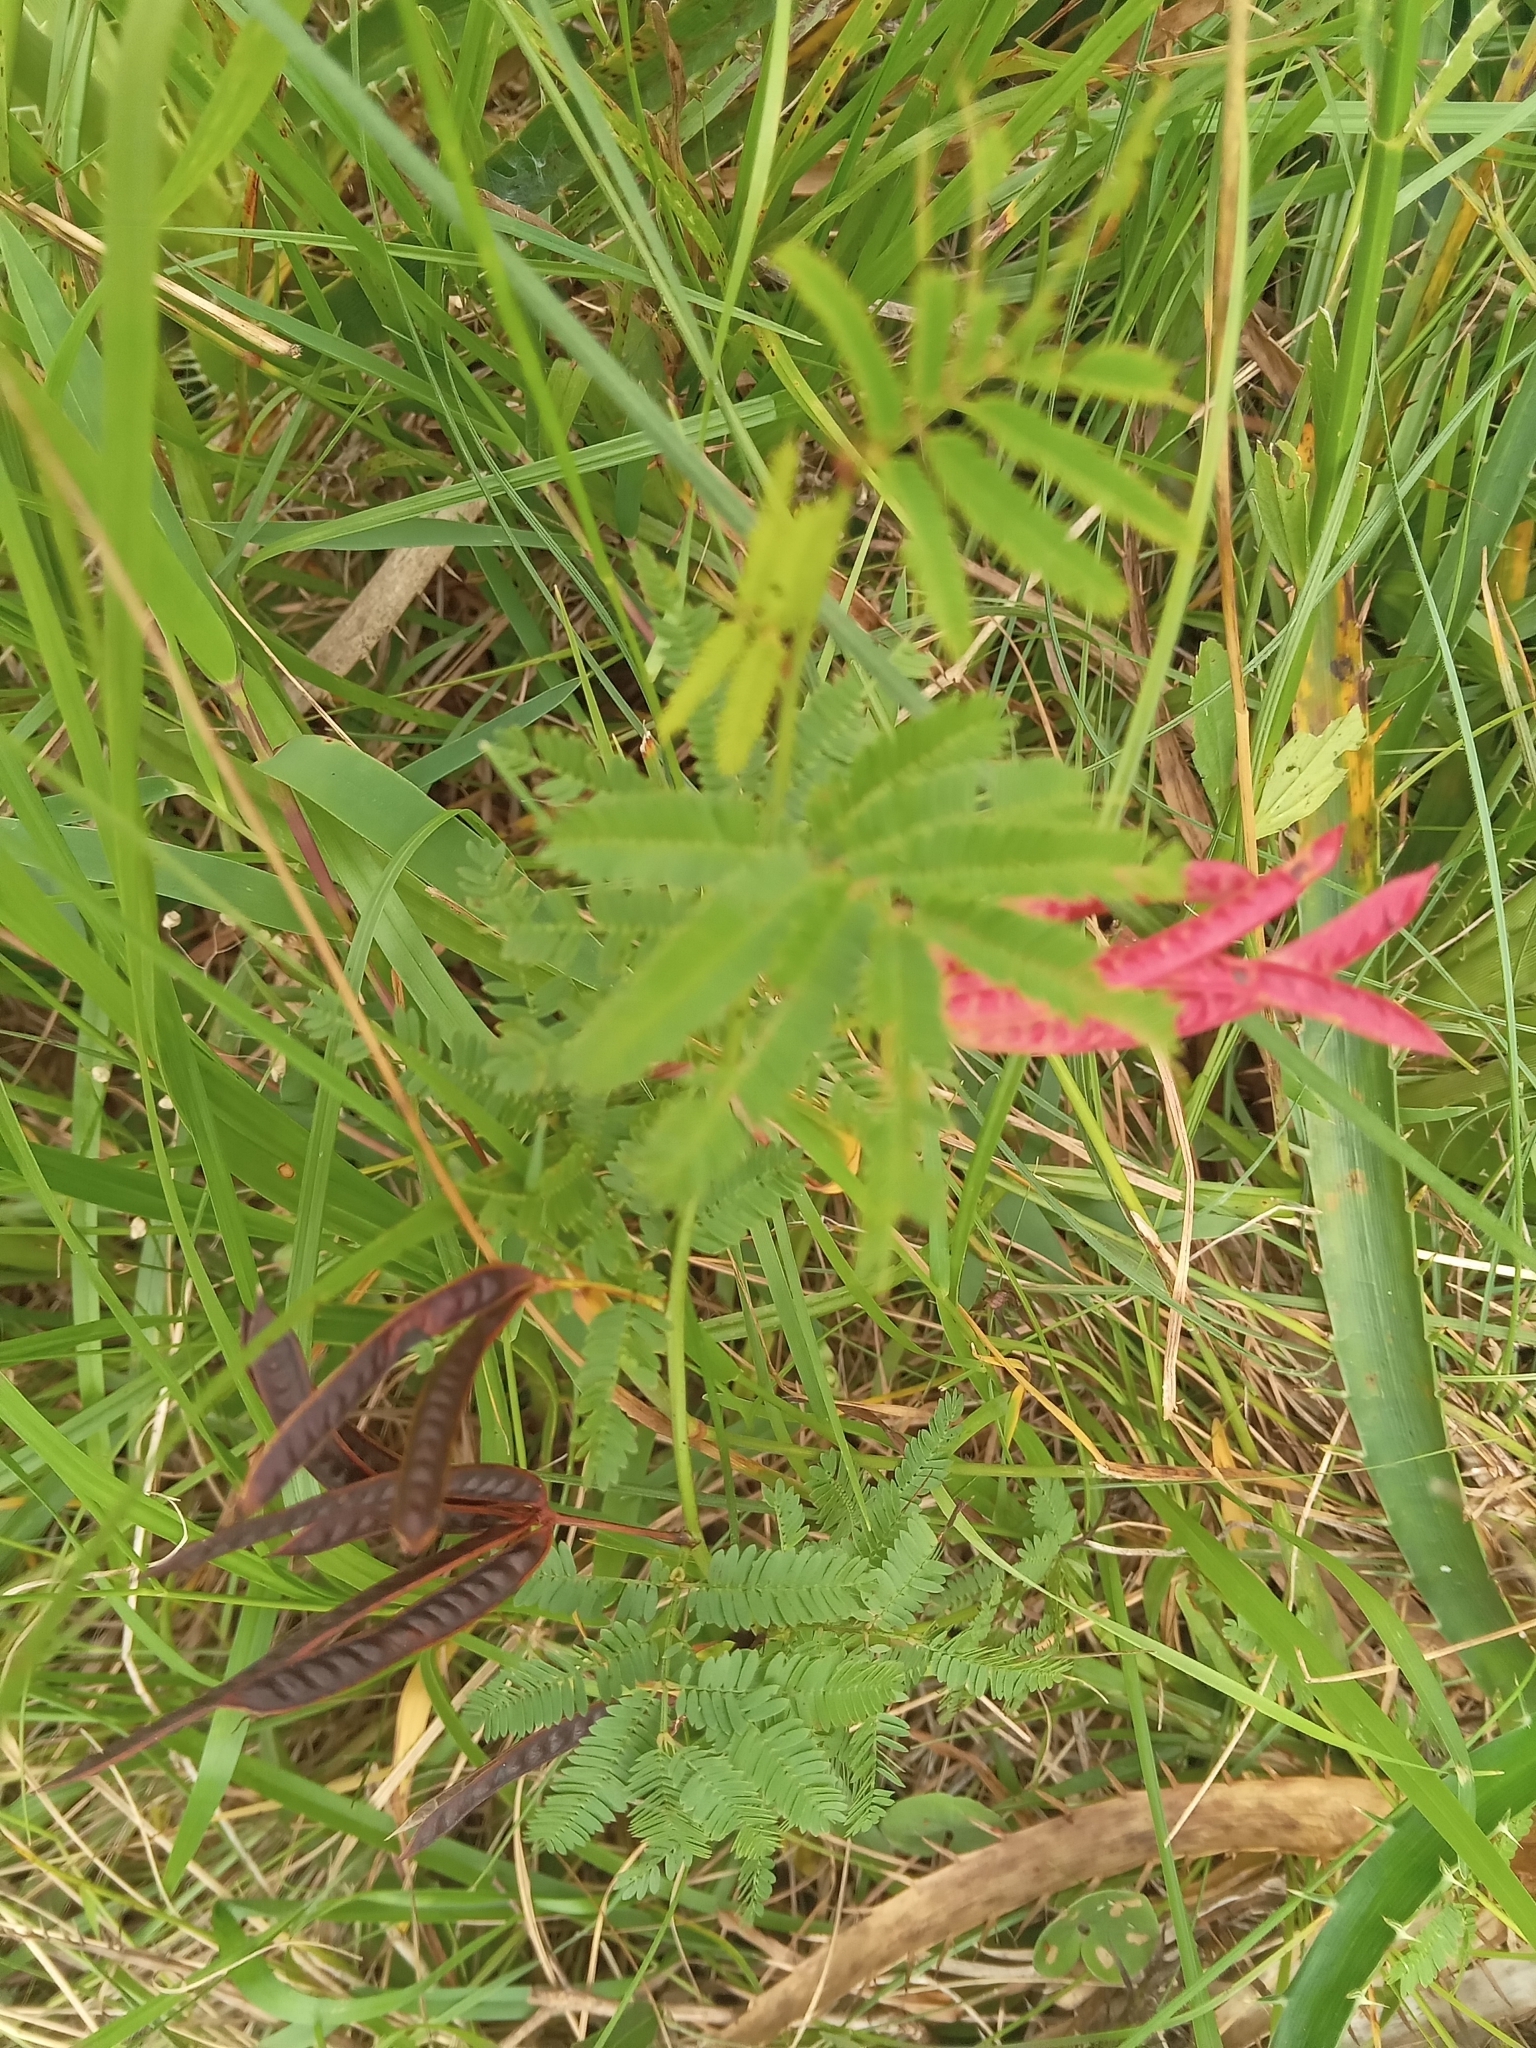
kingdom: Plantae
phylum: Tracheophyta
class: Magnoliopsida
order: Fabales
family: Fabaceae
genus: Desmanthus
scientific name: Desmanthus virgatus
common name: Wild tantan
